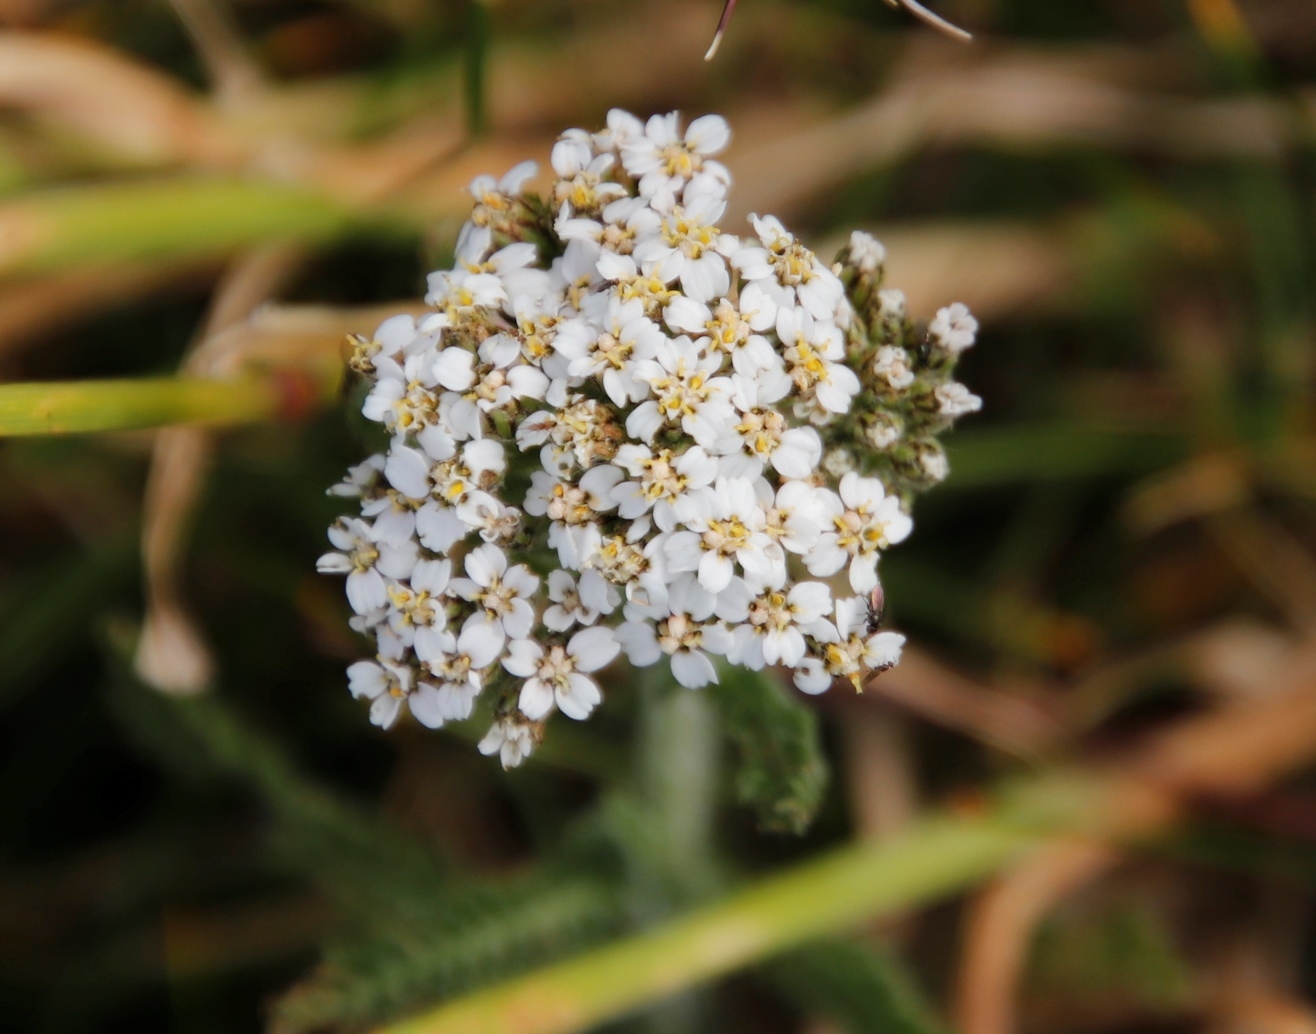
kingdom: Plantae
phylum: Tracheophyta
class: Magnoliopsida
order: Asterales
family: Asteraceae
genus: Achillea
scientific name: Achillea millefolium
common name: Yarrow
